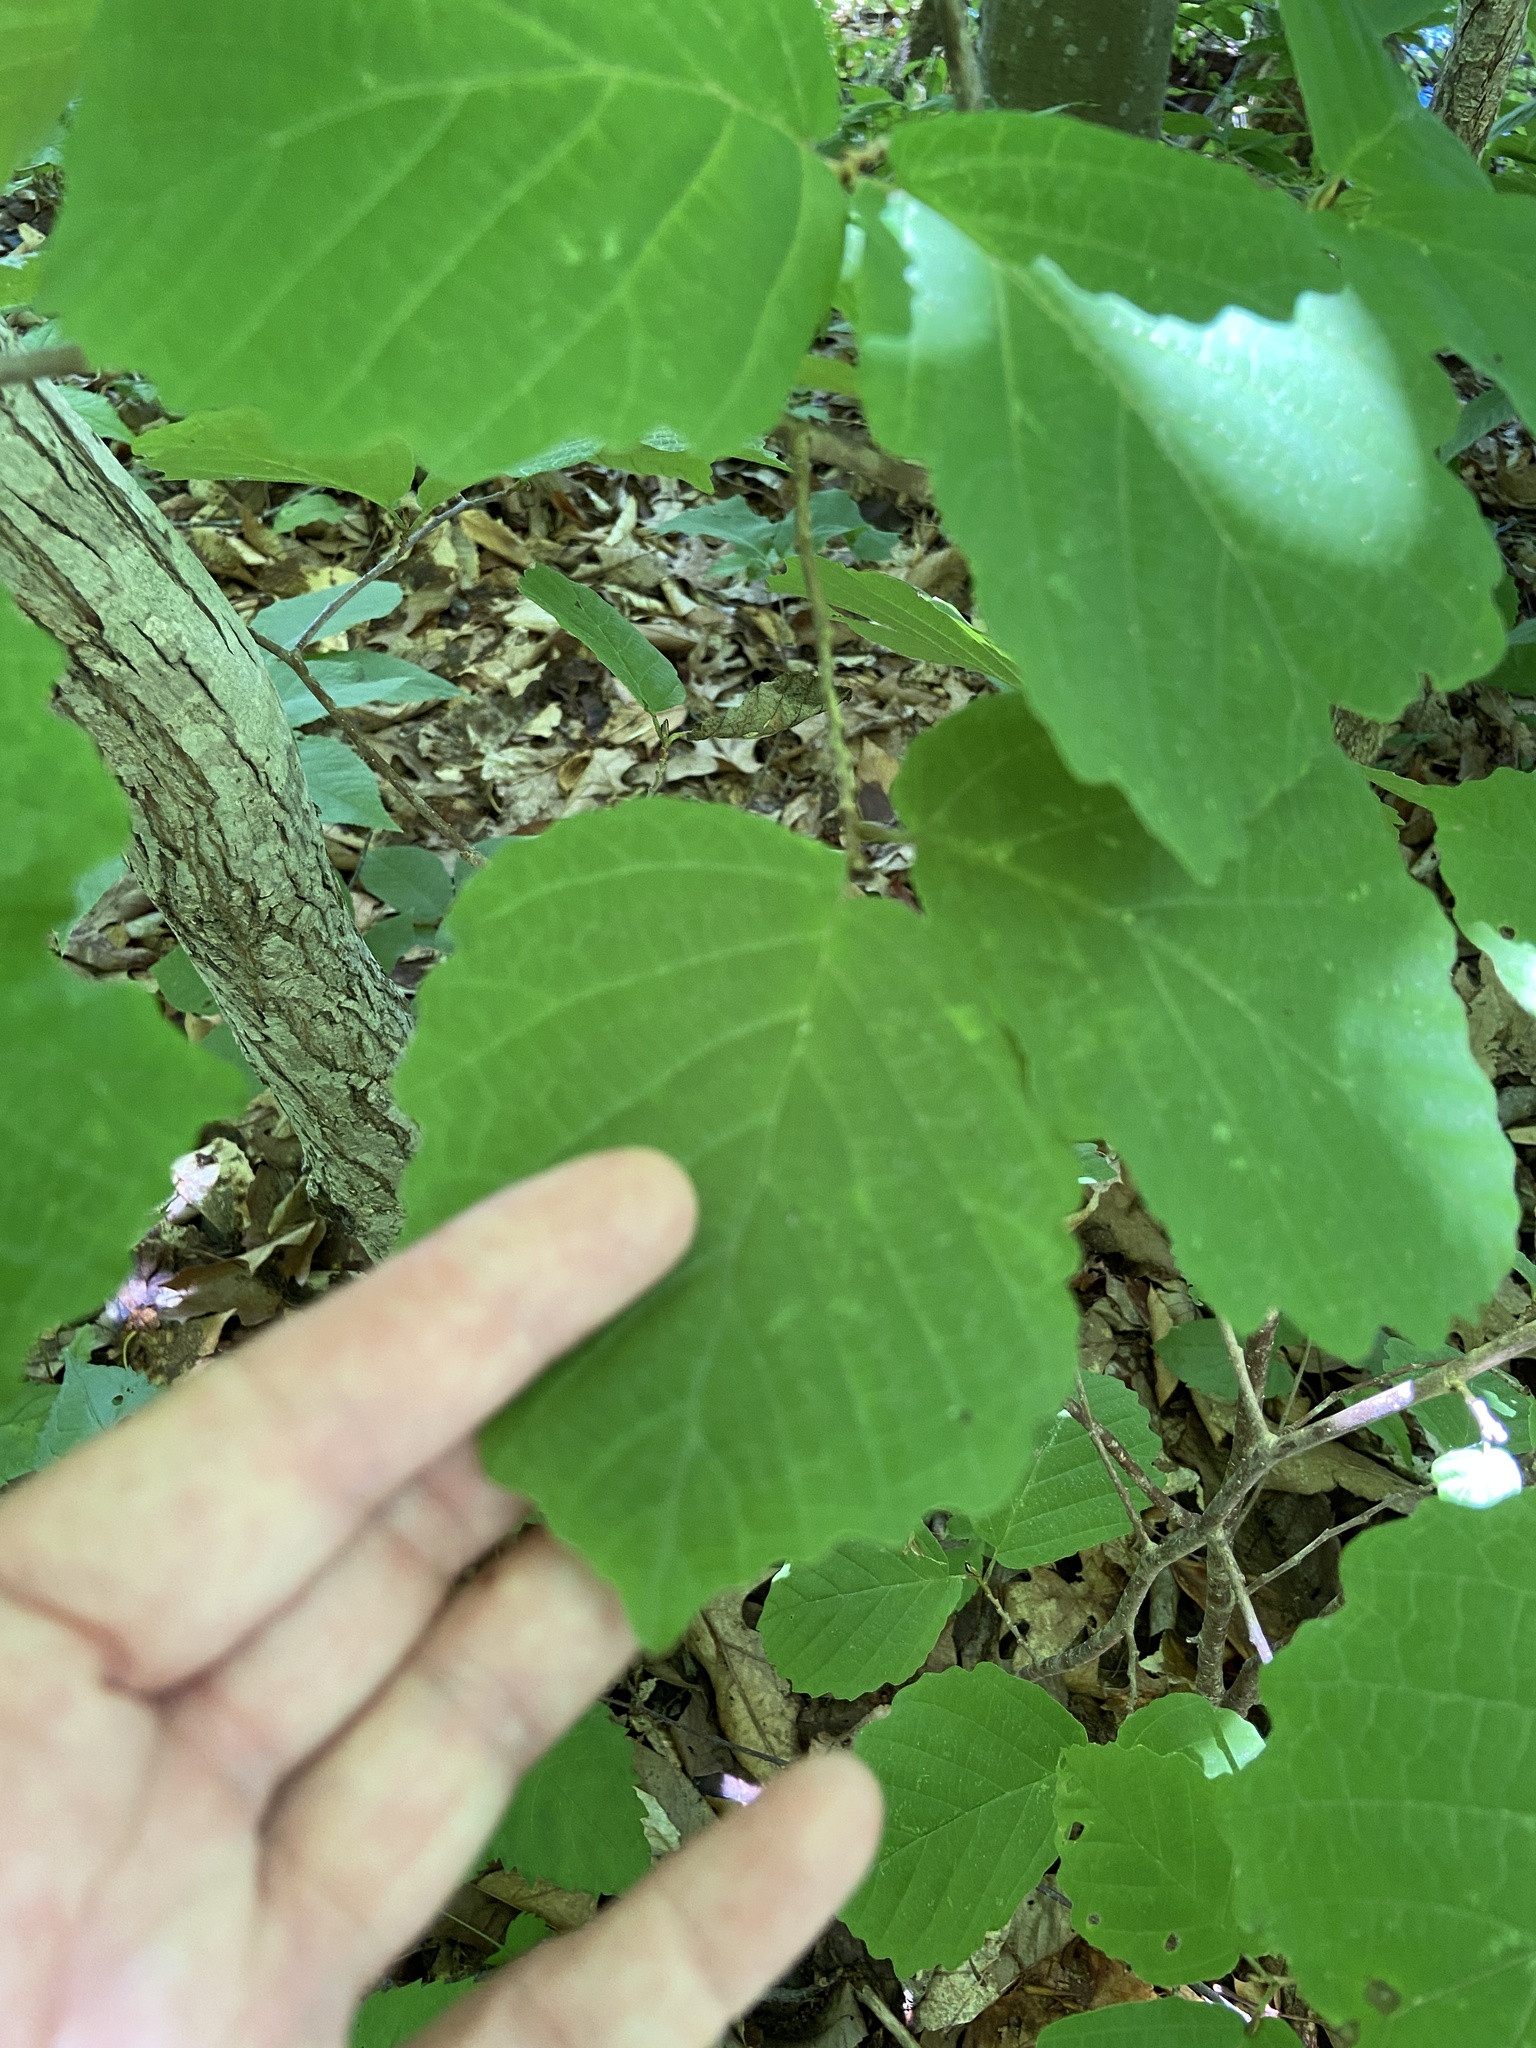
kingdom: Plantae
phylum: Tracheophyta
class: Magnoliopsida
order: Saxifragales
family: Hamamelidaceae
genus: Hamamelis
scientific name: Hamamelis virginiana
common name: Witch-hazel
